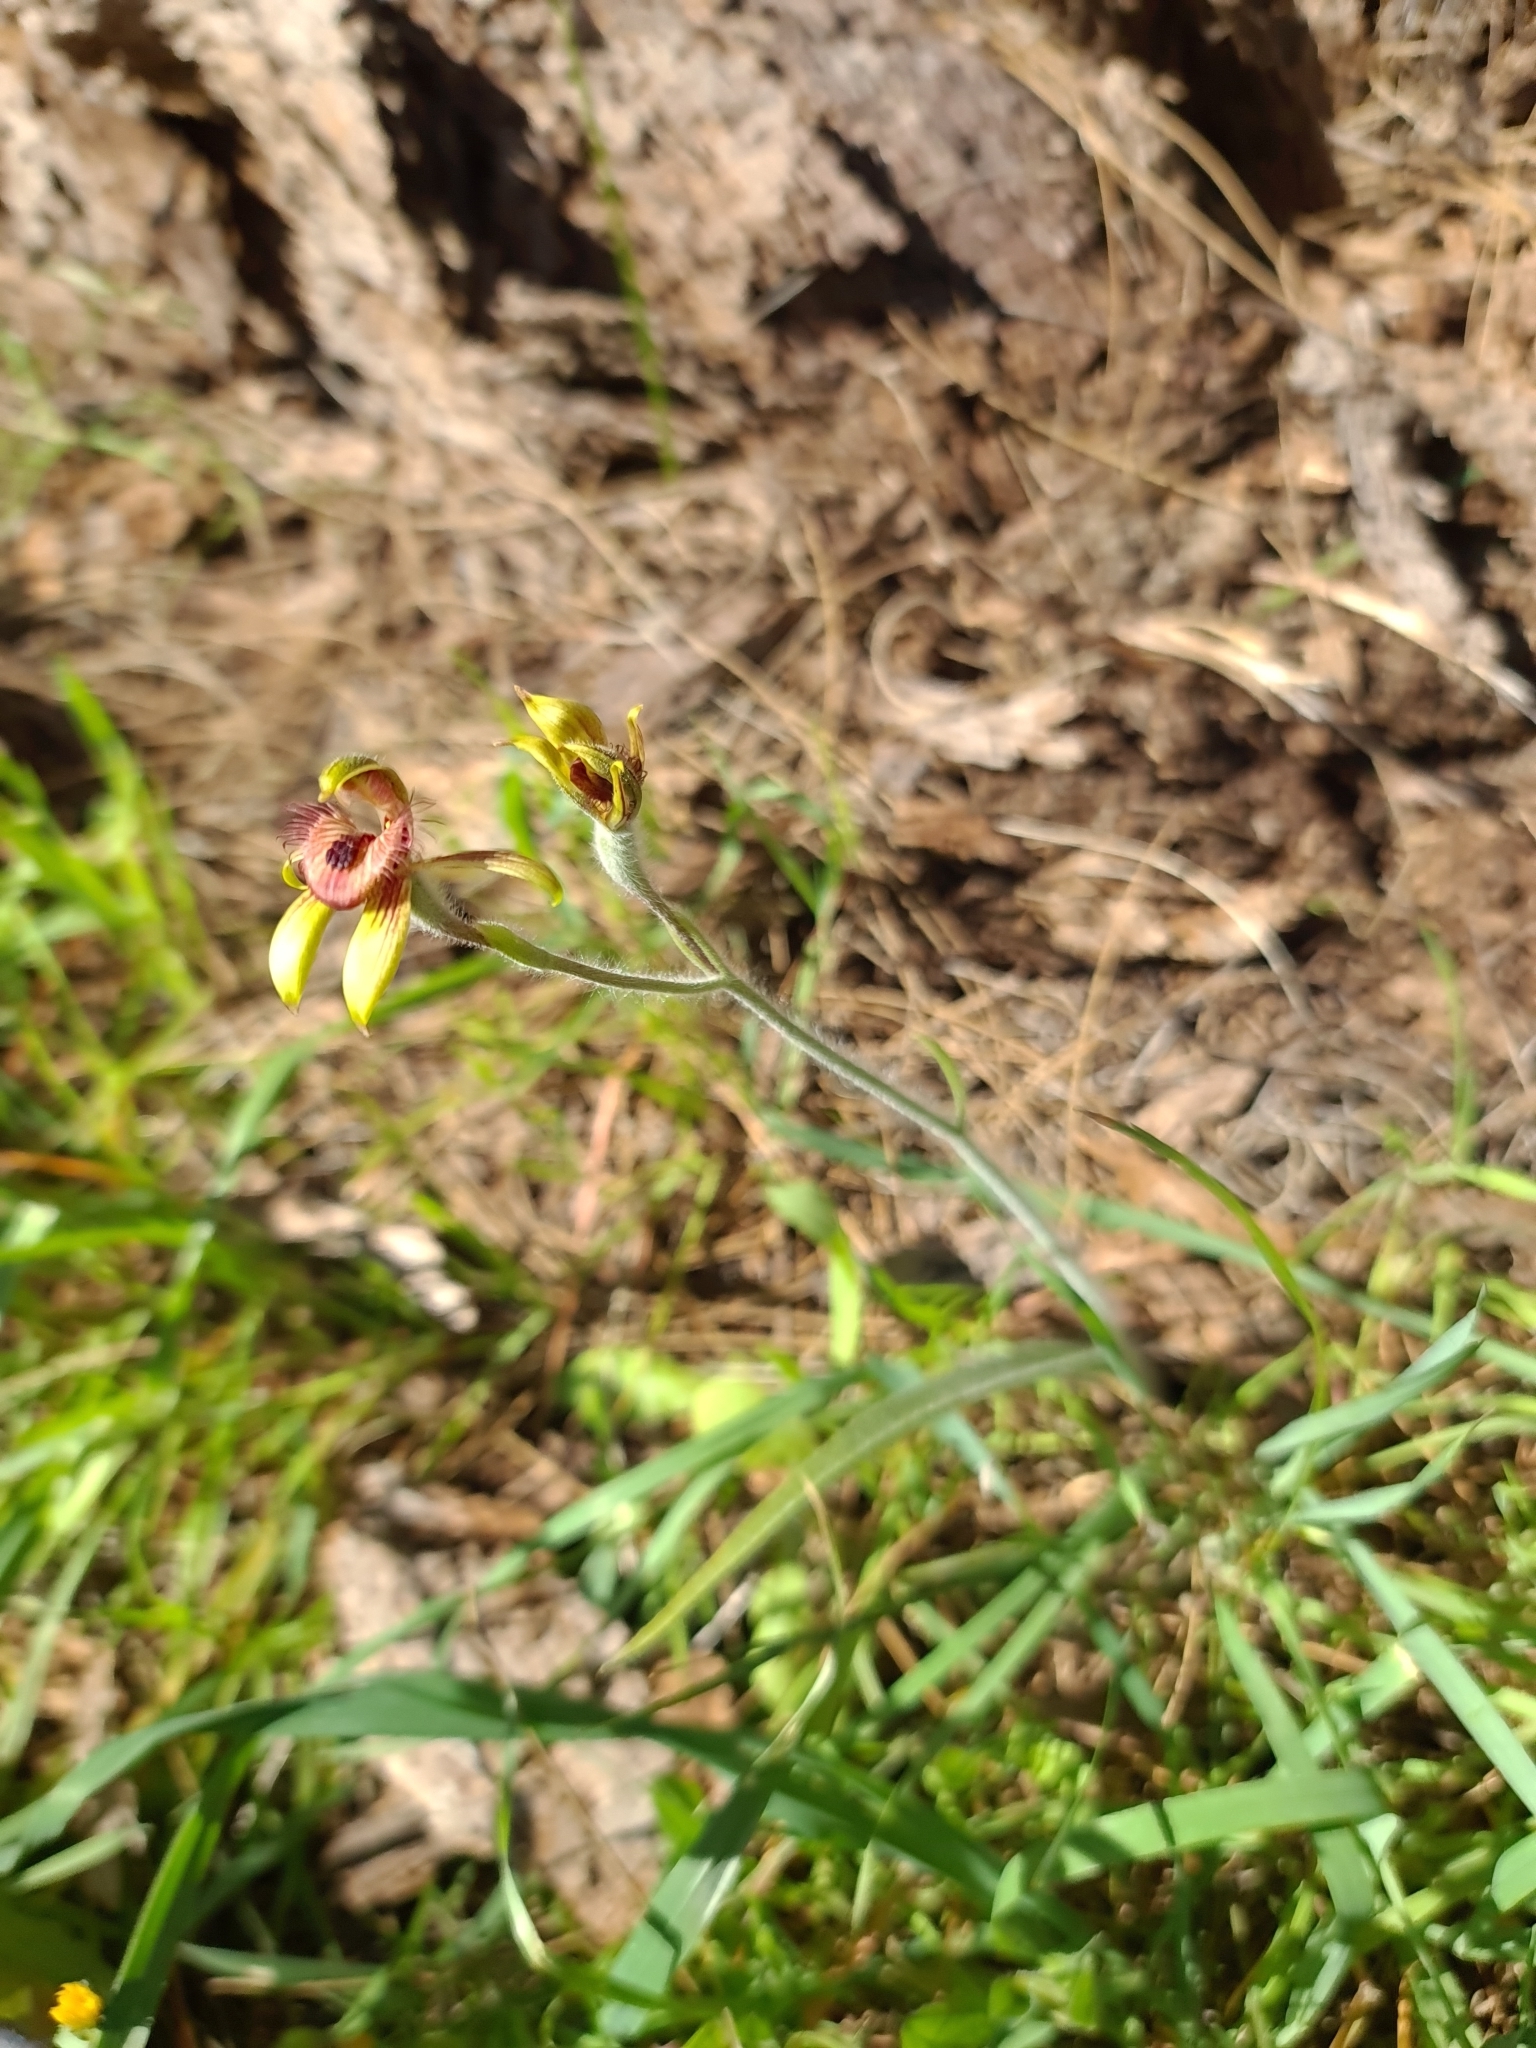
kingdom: Plantae
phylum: Tracheophyta
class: Liliopsida
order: Asparagales
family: Orchidaceae
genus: Caladenia
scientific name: Caladenia discoidea
